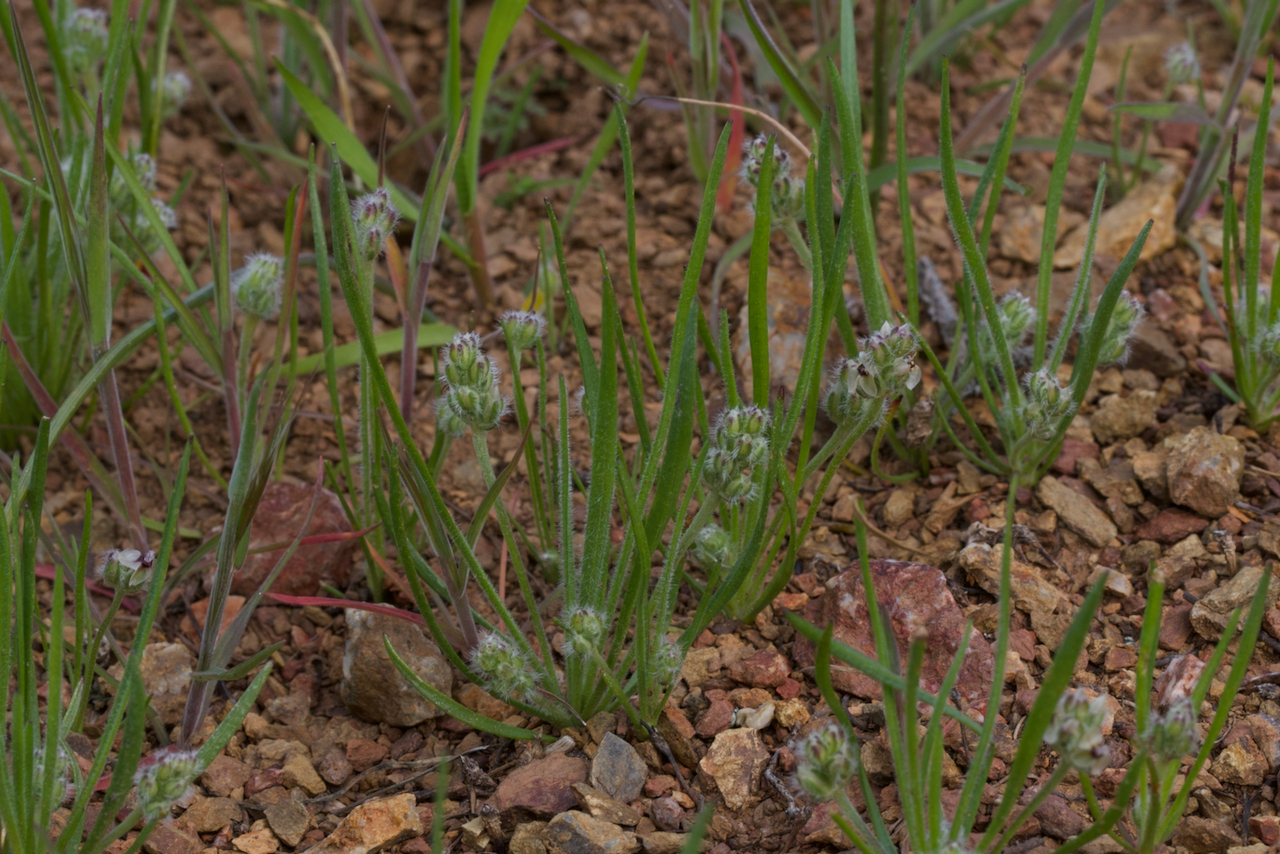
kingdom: Plantae
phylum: Tracheophyta
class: Magnoliopsida
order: Lamiales
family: Plantaginaceae
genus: Plantago
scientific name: Plantago erecta
